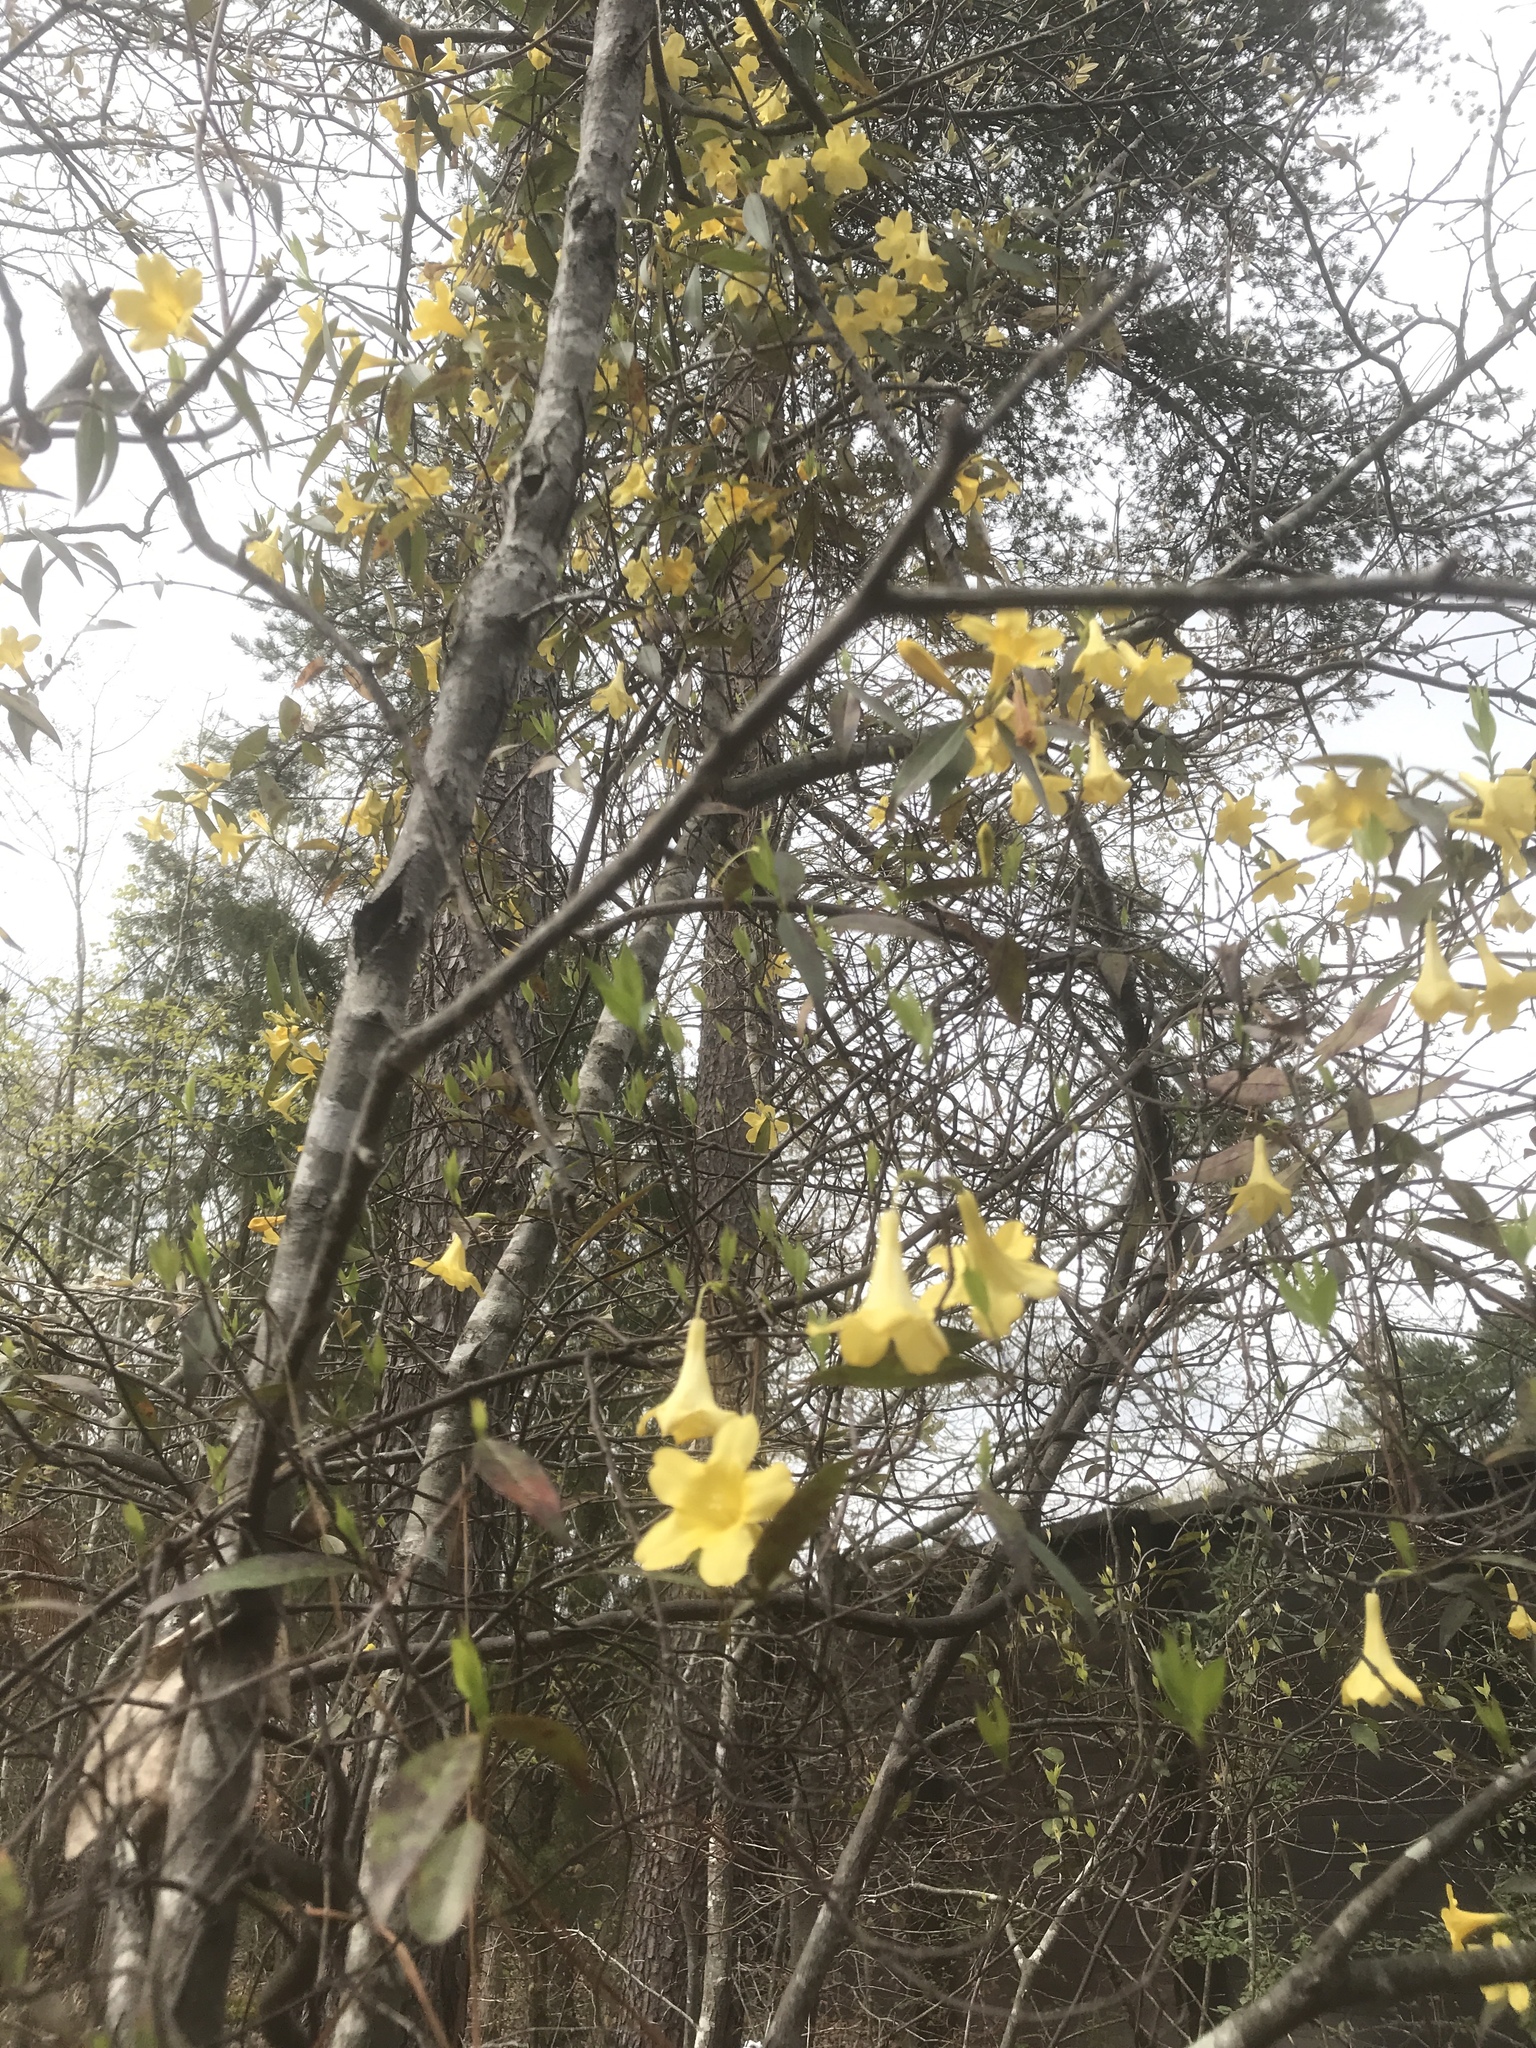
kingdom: Plantae
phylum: Tracheophyta
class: Magnoliopsida
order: Gentianales
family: Gelsemiaceae
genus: Gelsemium
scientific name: Gelsemium sempervirens
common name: Carolina-jasmine
